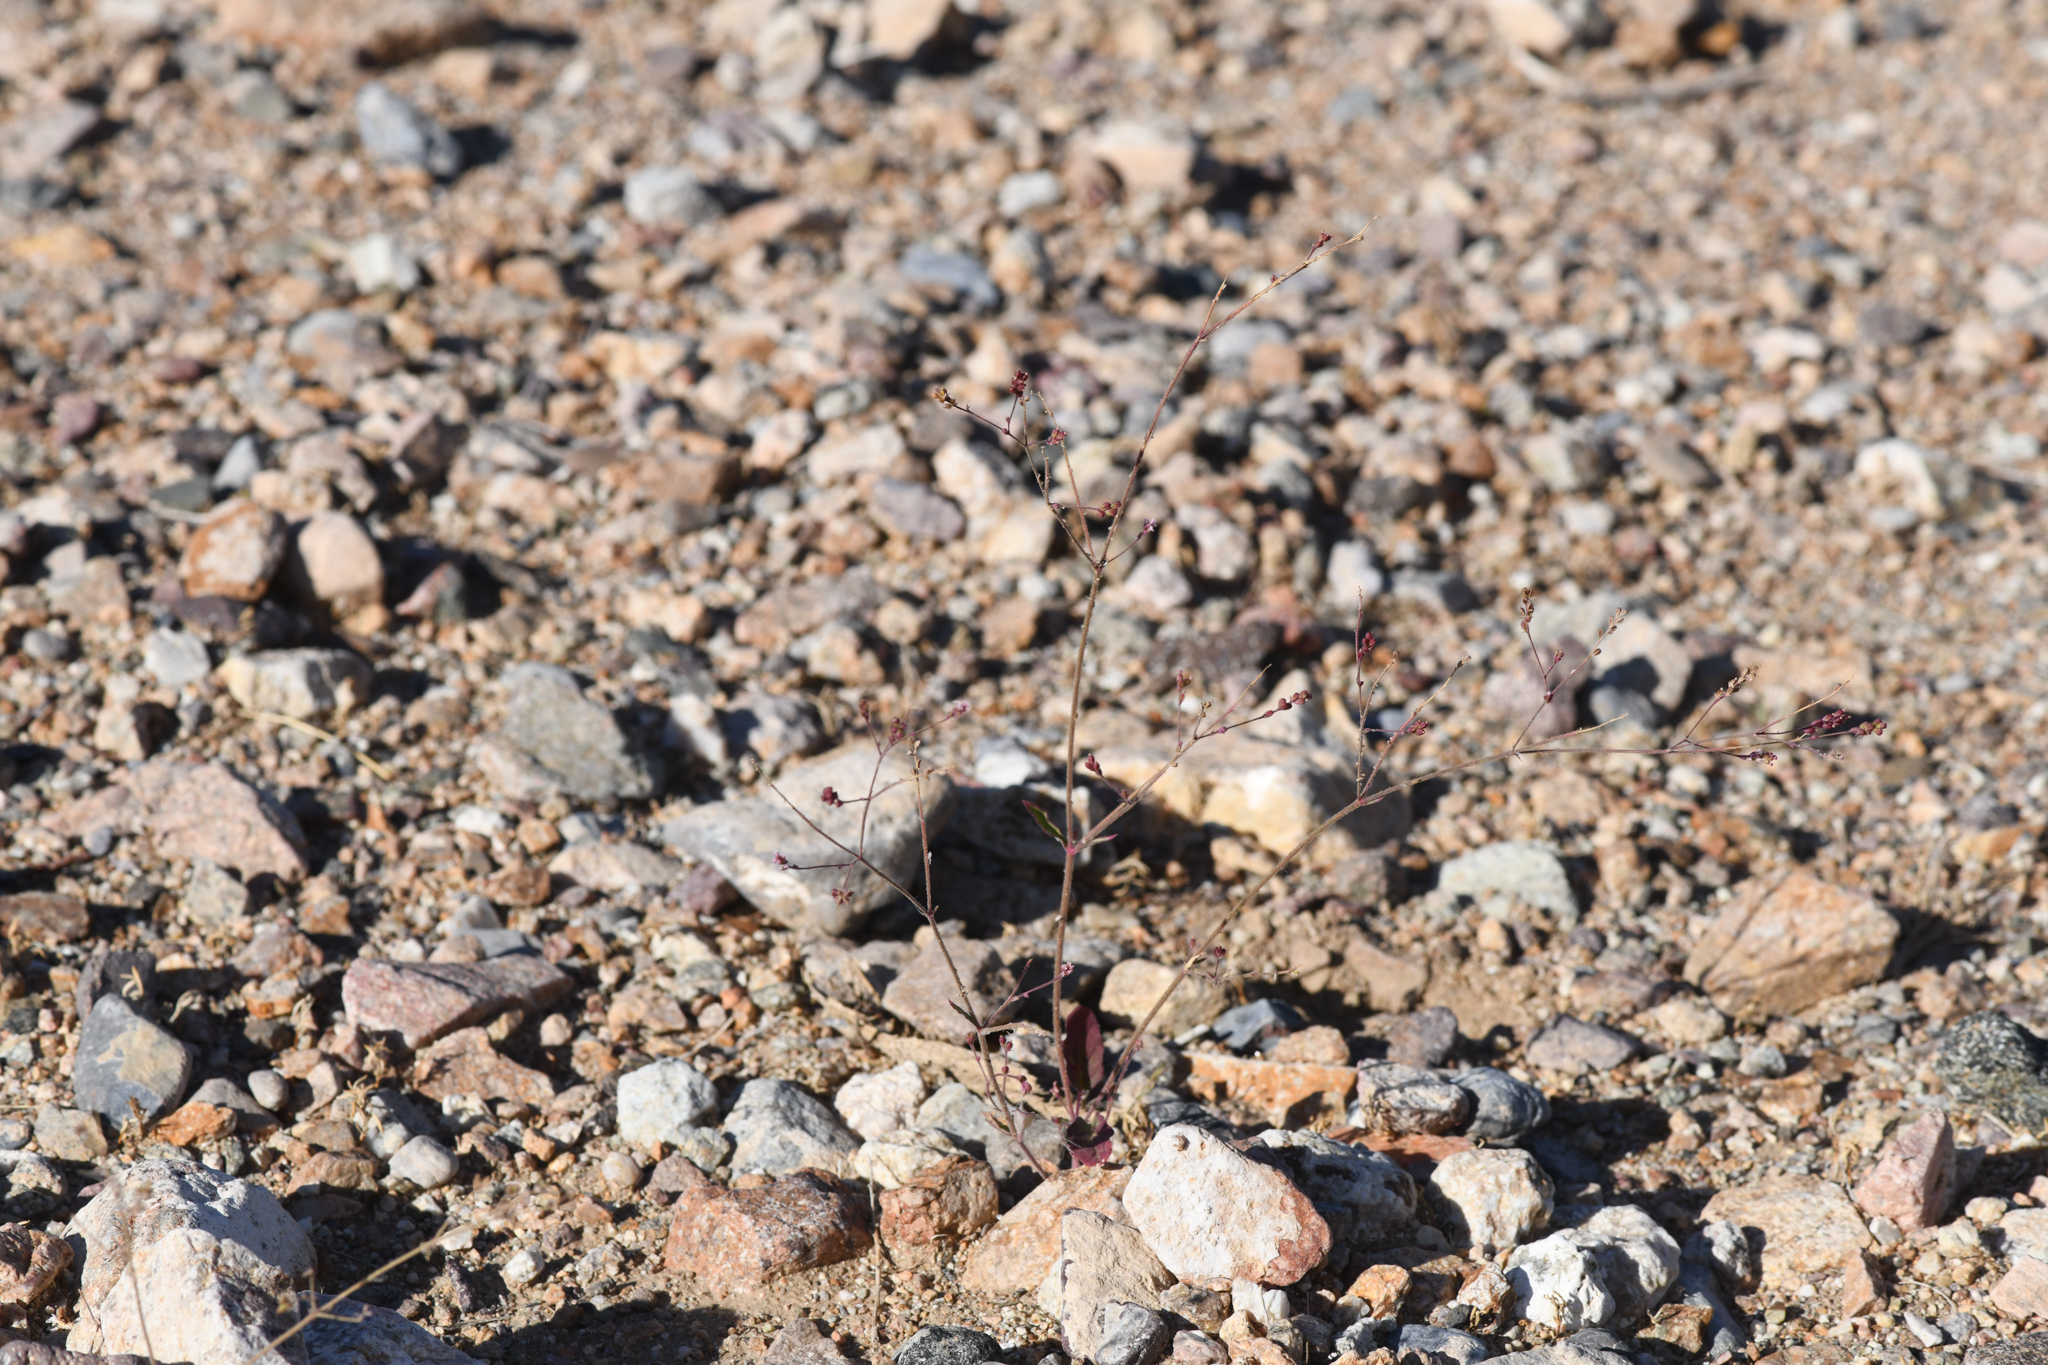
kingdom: Plantae
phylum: Tracheophyta
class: Magnoliopsida
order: Caryophyllales
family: Nyctaginaceae
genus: Boerhavia
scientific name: Boerhavia wrightii
